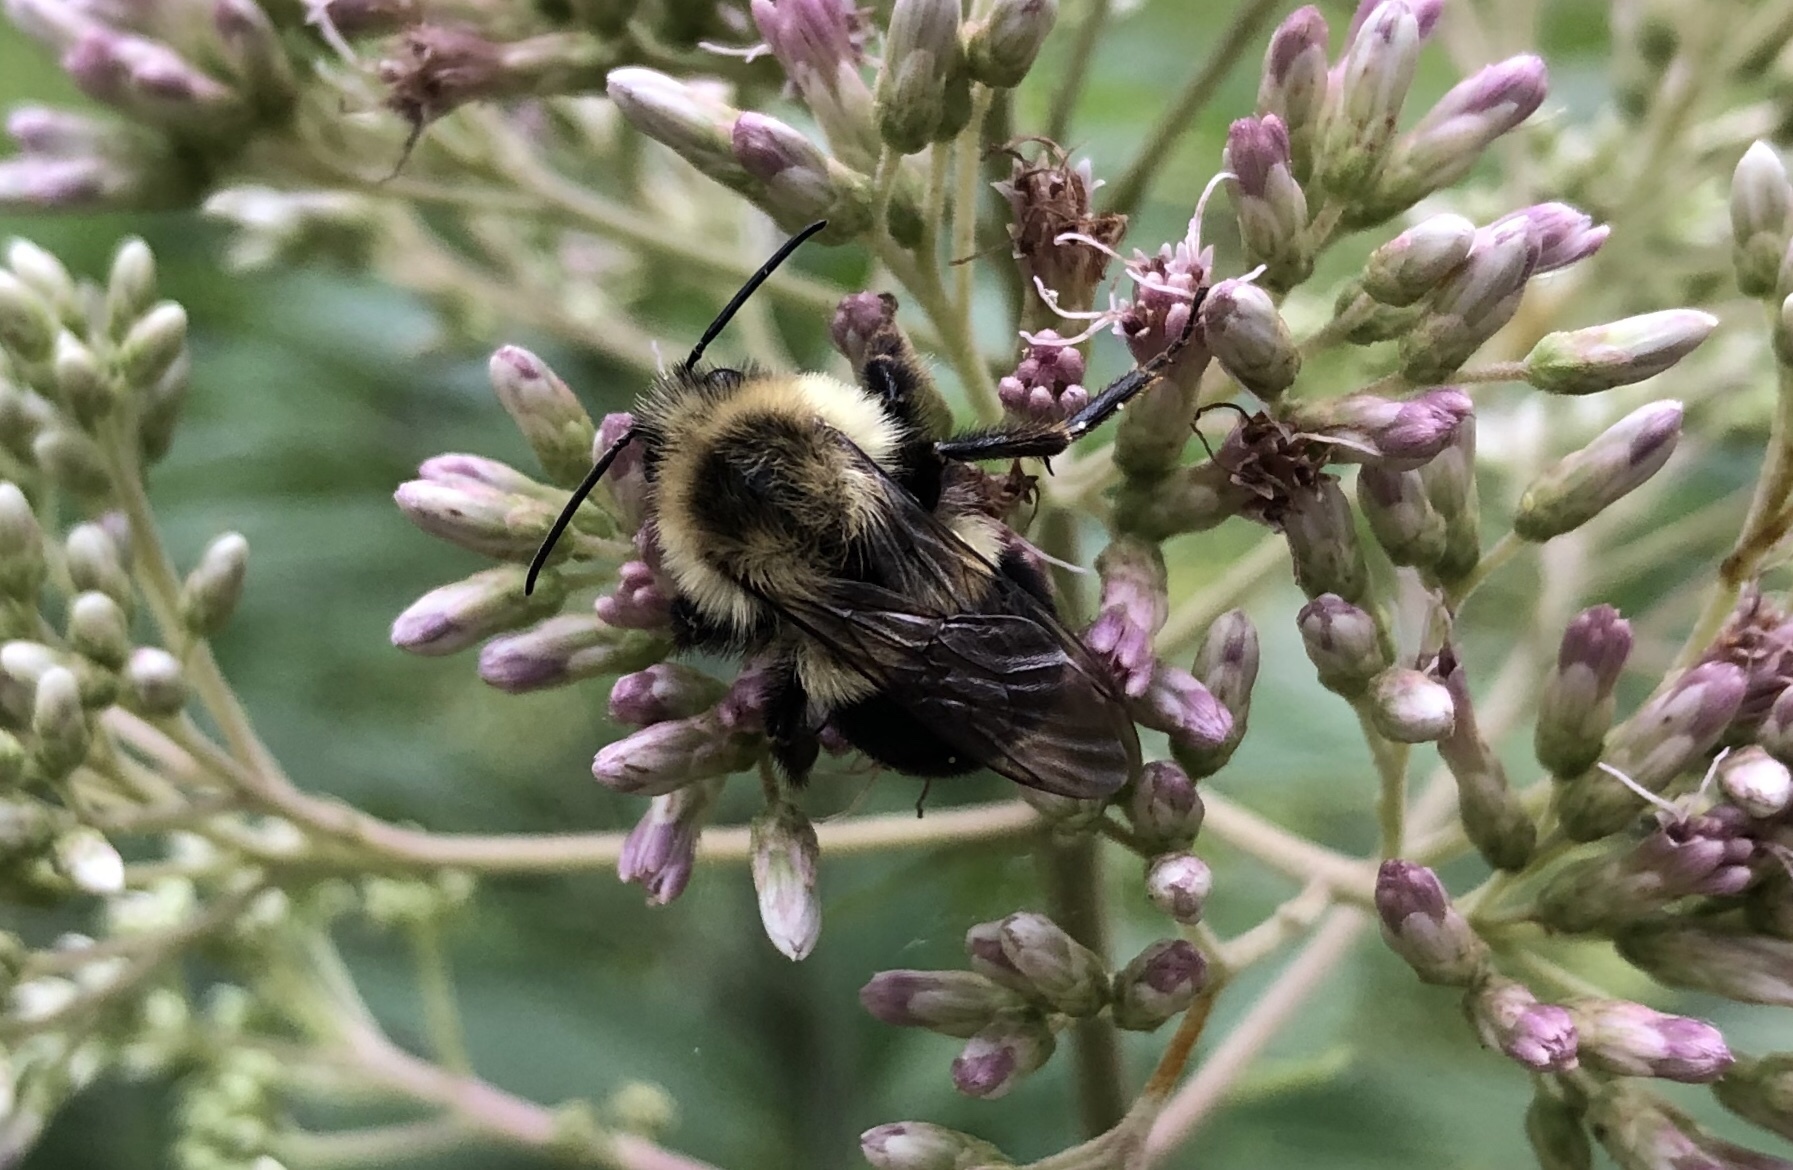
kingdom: Animalia
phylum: Arthropoda
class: Insecta
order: Hymenoptera
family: Apidae
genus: Bombus
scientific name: Bombus impatiens
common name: Common eastern bumble bee
